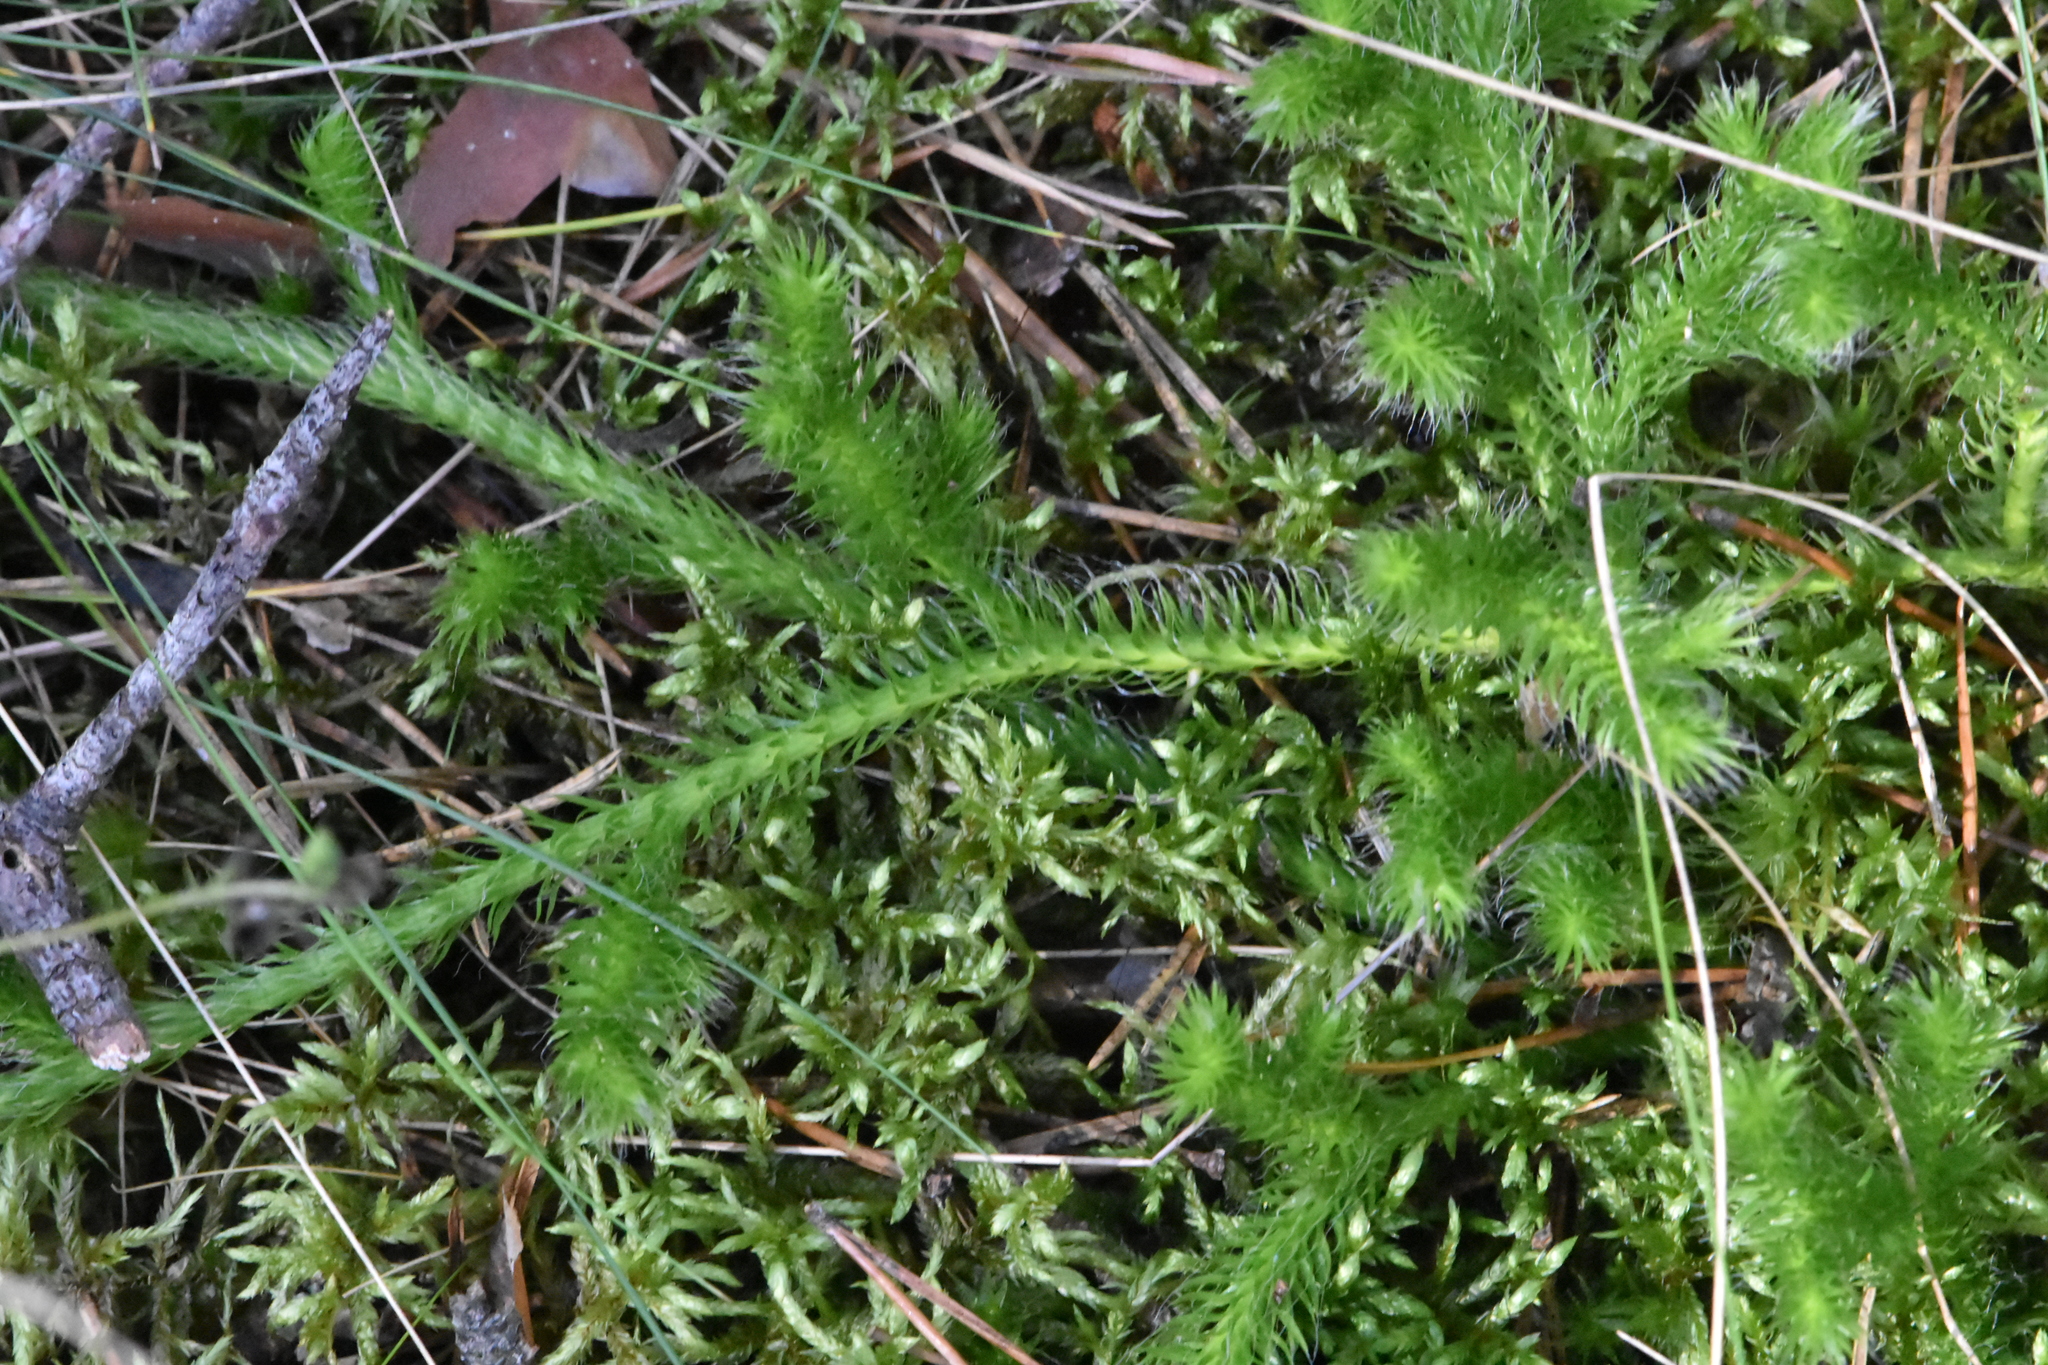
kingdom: Plantae
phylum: Tracheophyta
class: Lycopodiopsida
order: Lycopodiales
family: Lycopodiaceae
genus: Lycopodium
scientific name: Lycopodium clavatum
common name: Stag's-horn clubmoss
